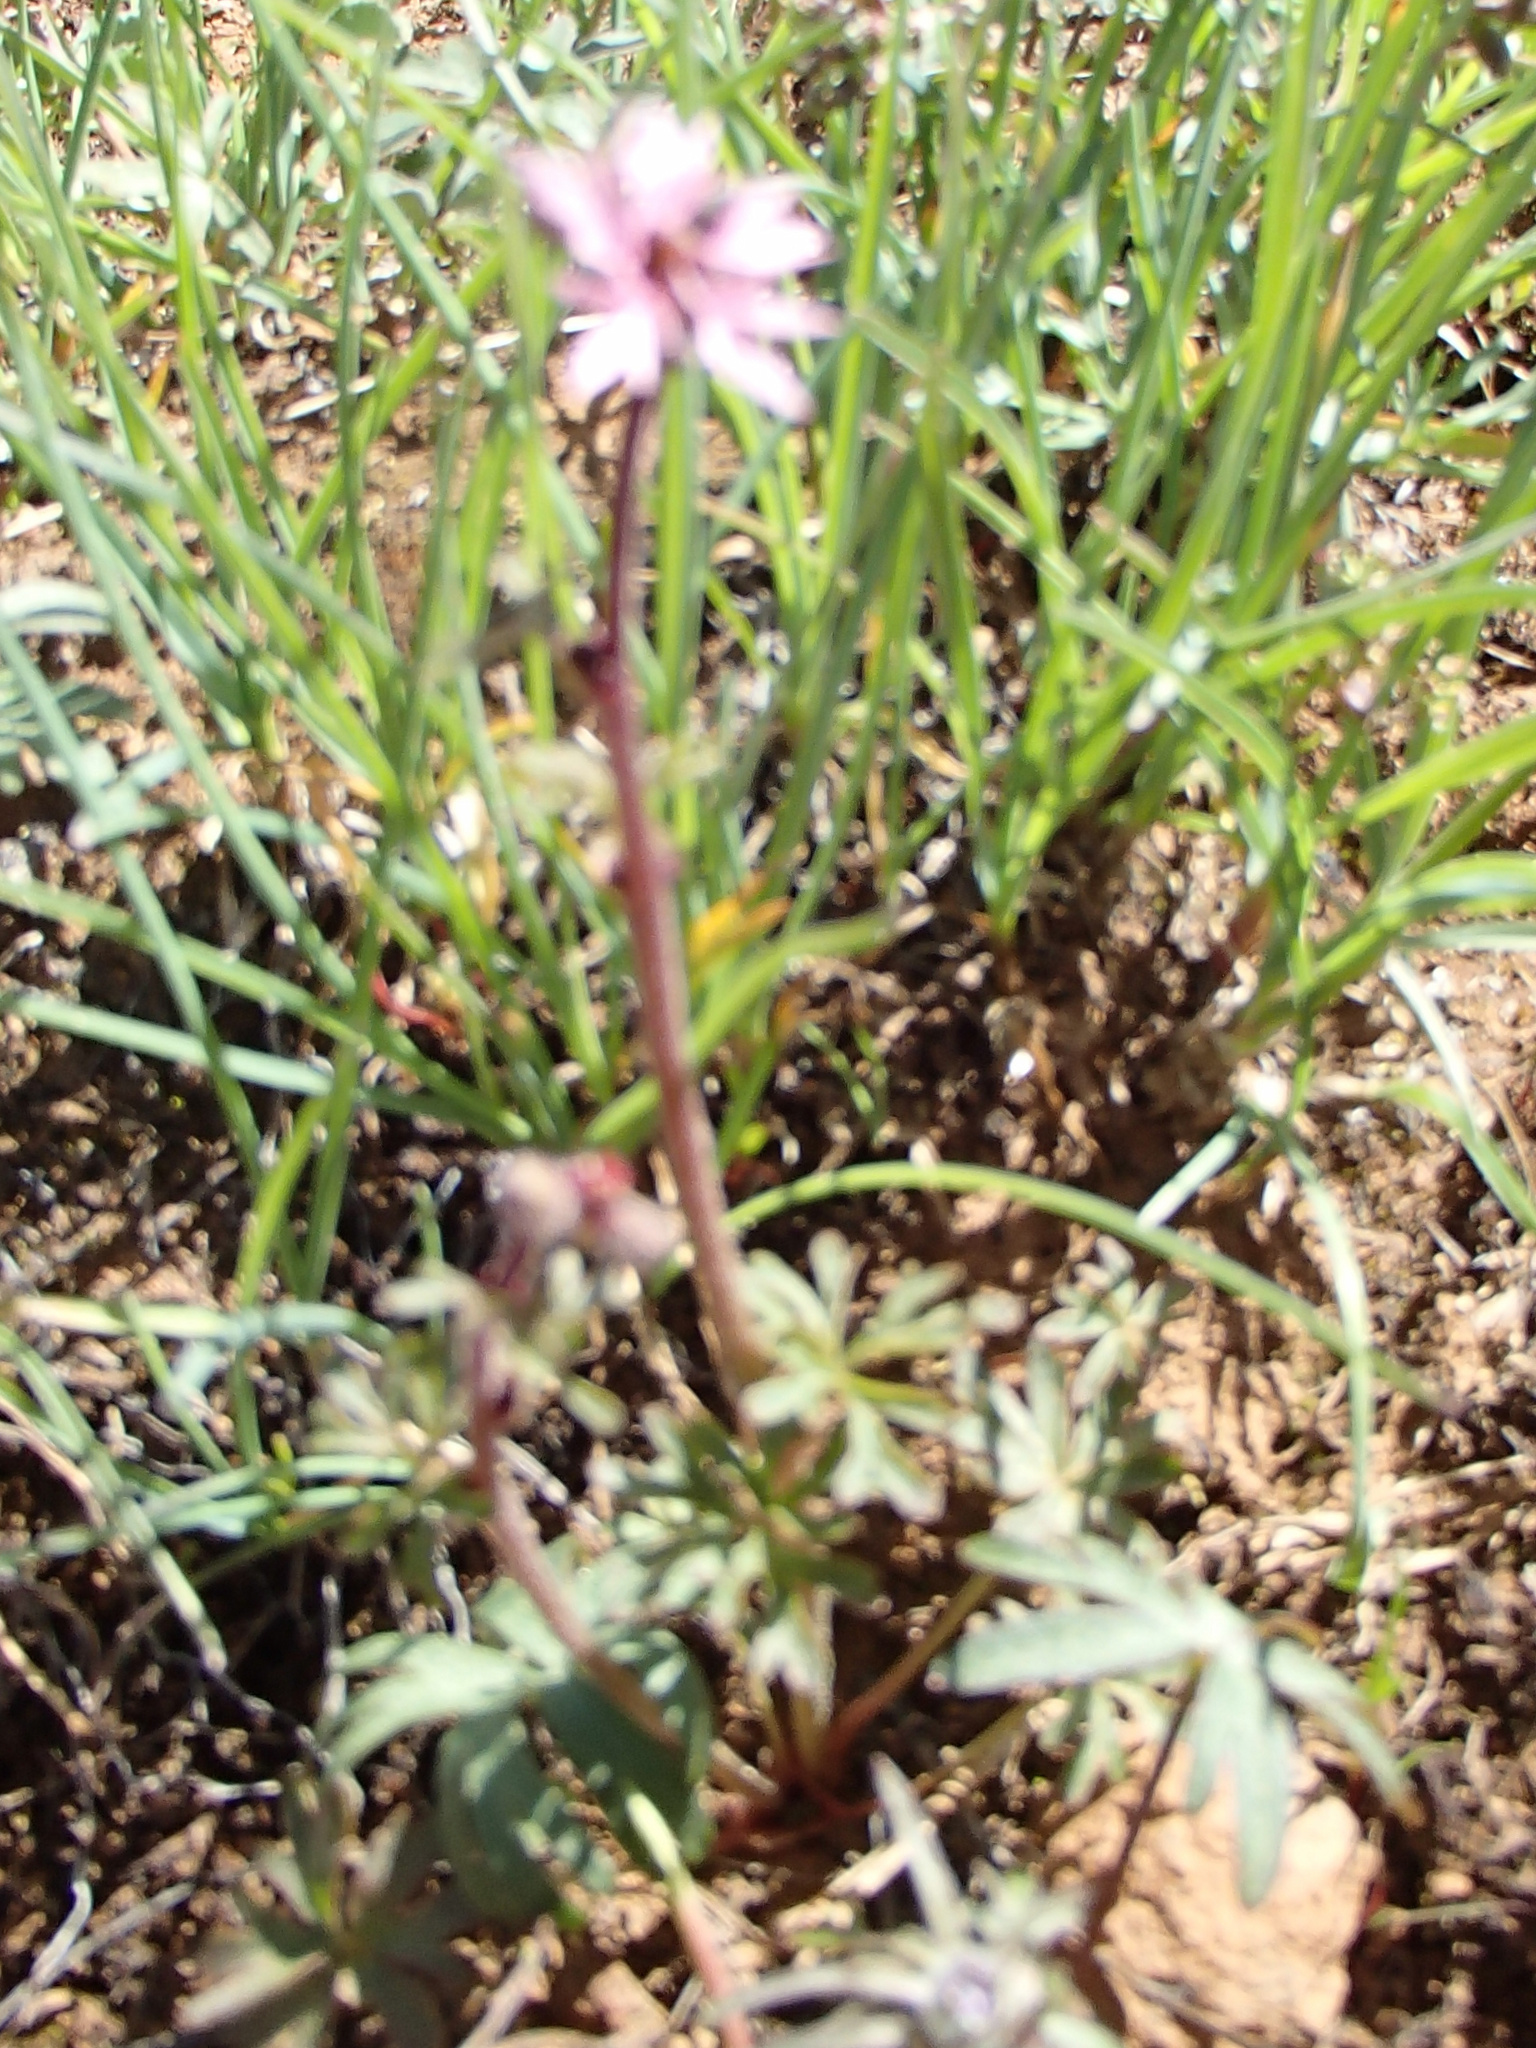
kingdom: Plantae
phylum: Tracheophyta
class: Magnoliopsida
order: Saxifragales
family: Saxifragaceae
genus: Lithophragma
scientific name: Lithophragma glabrum
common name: Bulbous prairie-star
